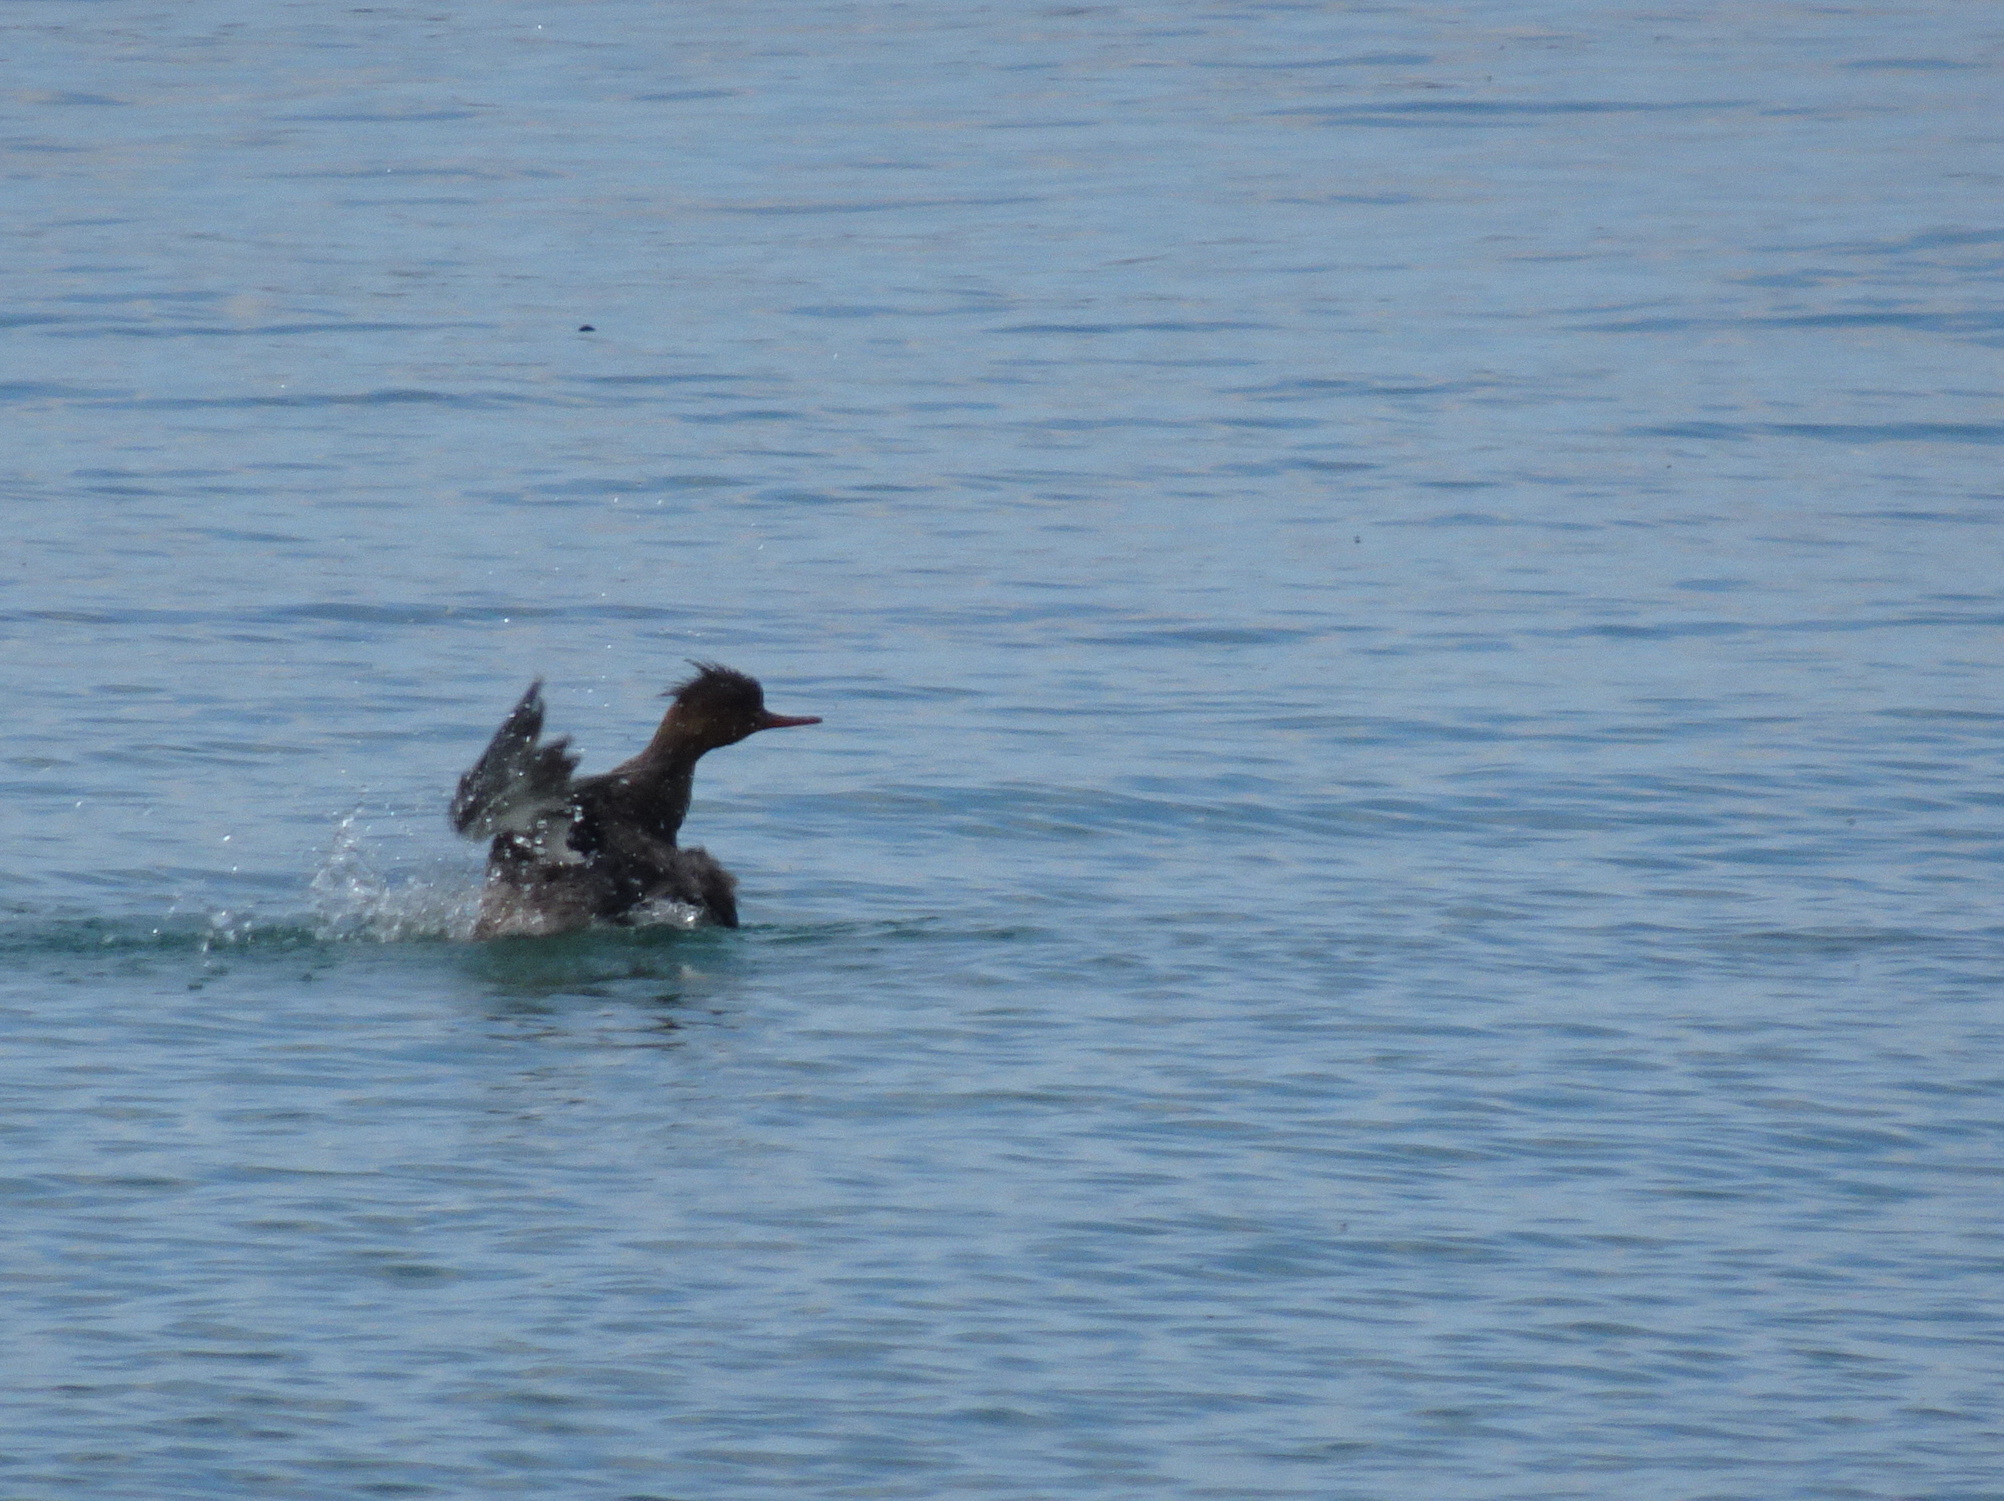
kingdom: Animalia
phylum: Chordata
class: Aves
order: Anseriformes
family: Anatidae
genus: Mergus
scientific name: Mergus serrator
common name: Red-breasted merganser
